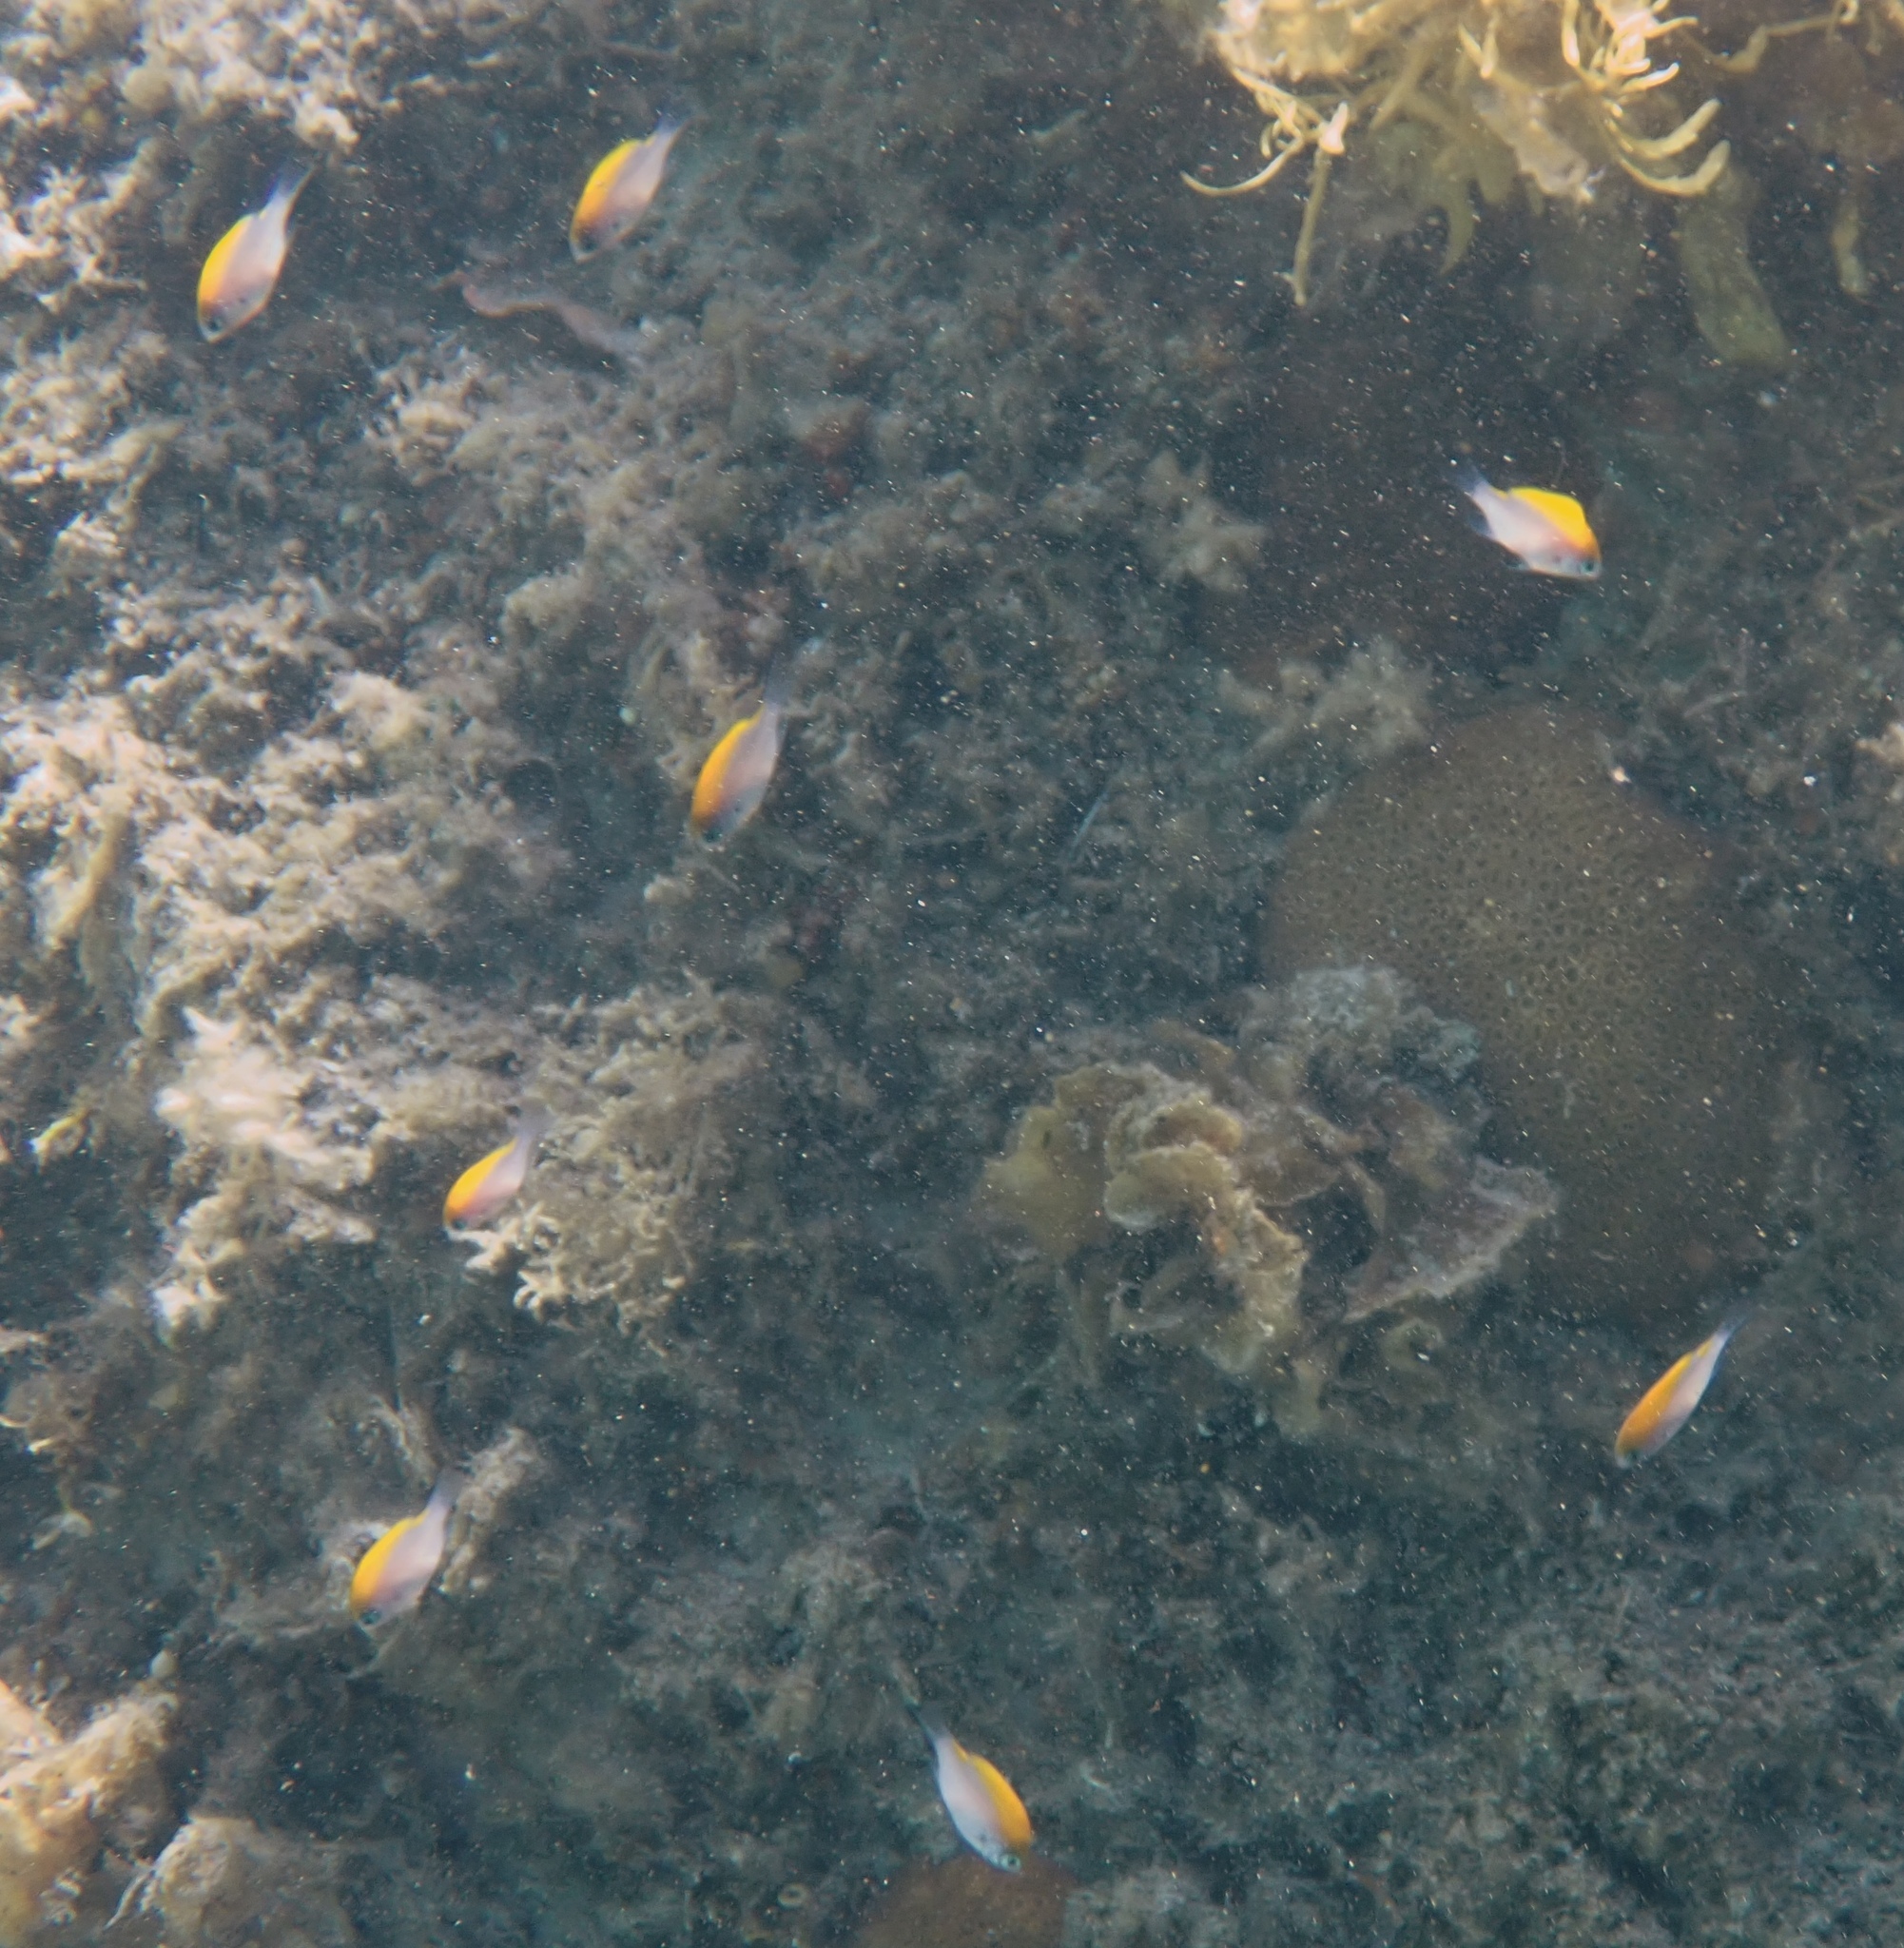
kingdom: Animalia
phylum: Chordata
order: Perciformes
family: Pomacentridae
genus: Chromis
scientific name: Chromis klunzingeri
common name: Black-headed chromis
